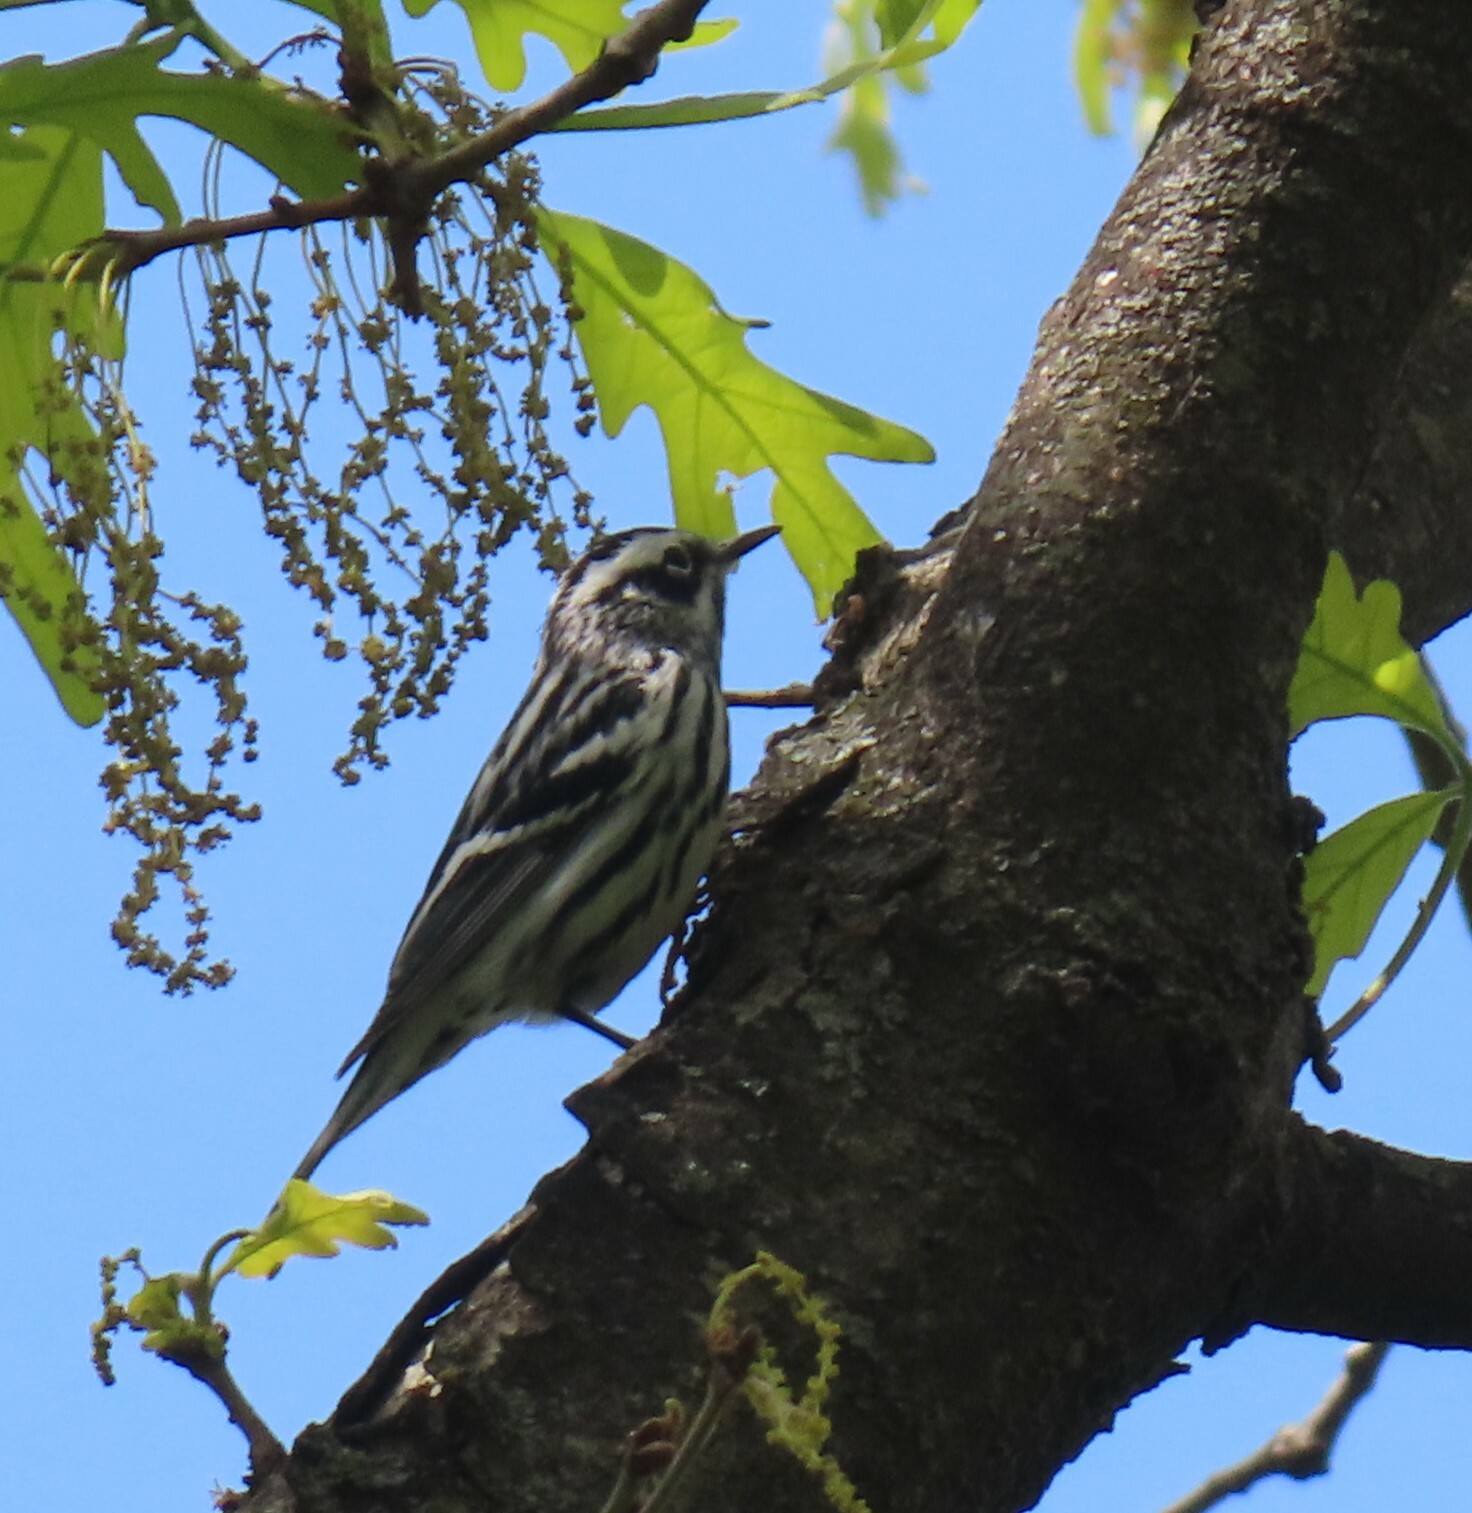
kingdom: Animalia
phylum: Chordata
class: Aves
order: Passeriformes
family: Parulidae
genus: Mniotilta
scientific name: Mniotilta varia
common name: Black-and-white warbler
